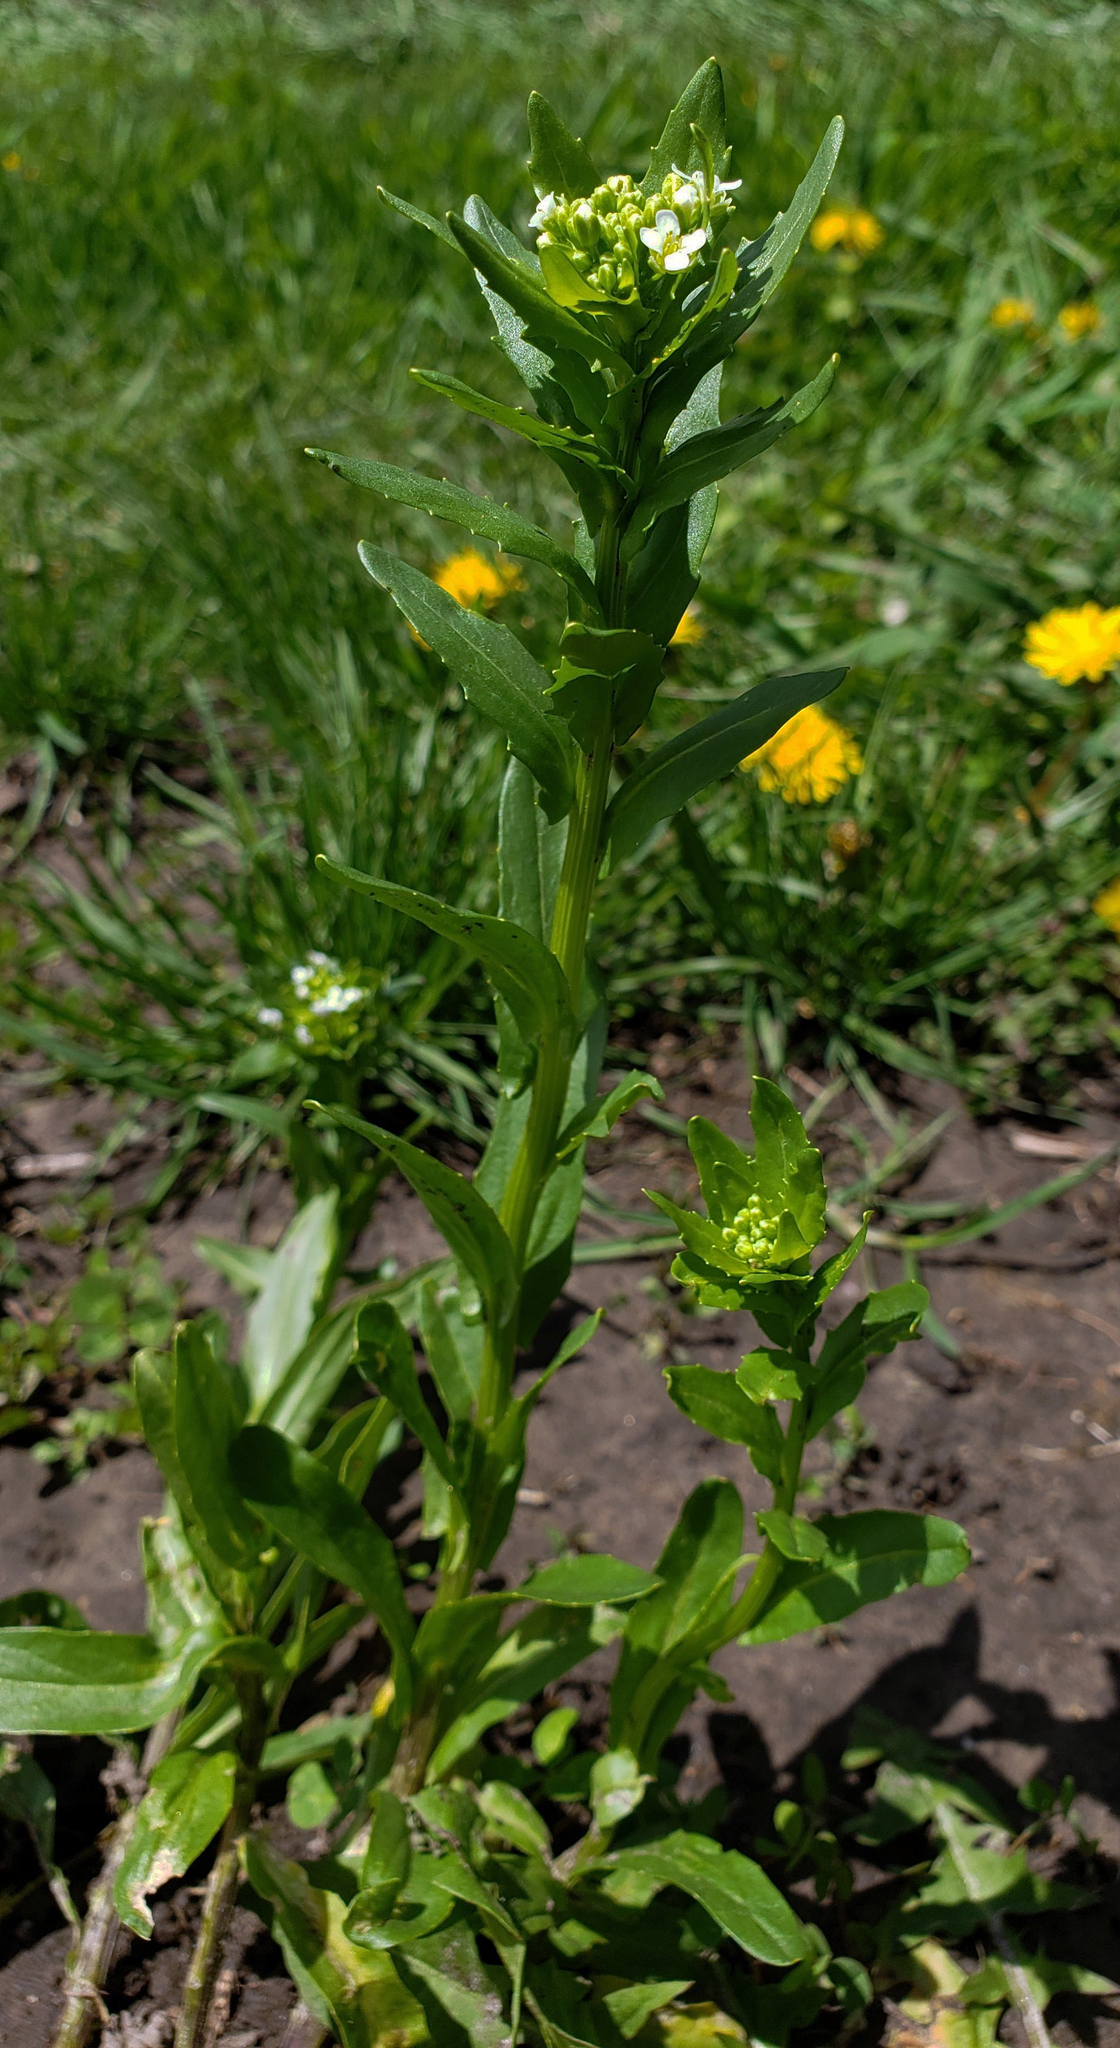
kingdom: Plantae
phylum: Tracheophyta
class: Magnoliopsida
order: Brassicales
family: Brassicaceae
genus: Thlaspi
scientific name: Thlaspi arvense
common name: Field pennycress
